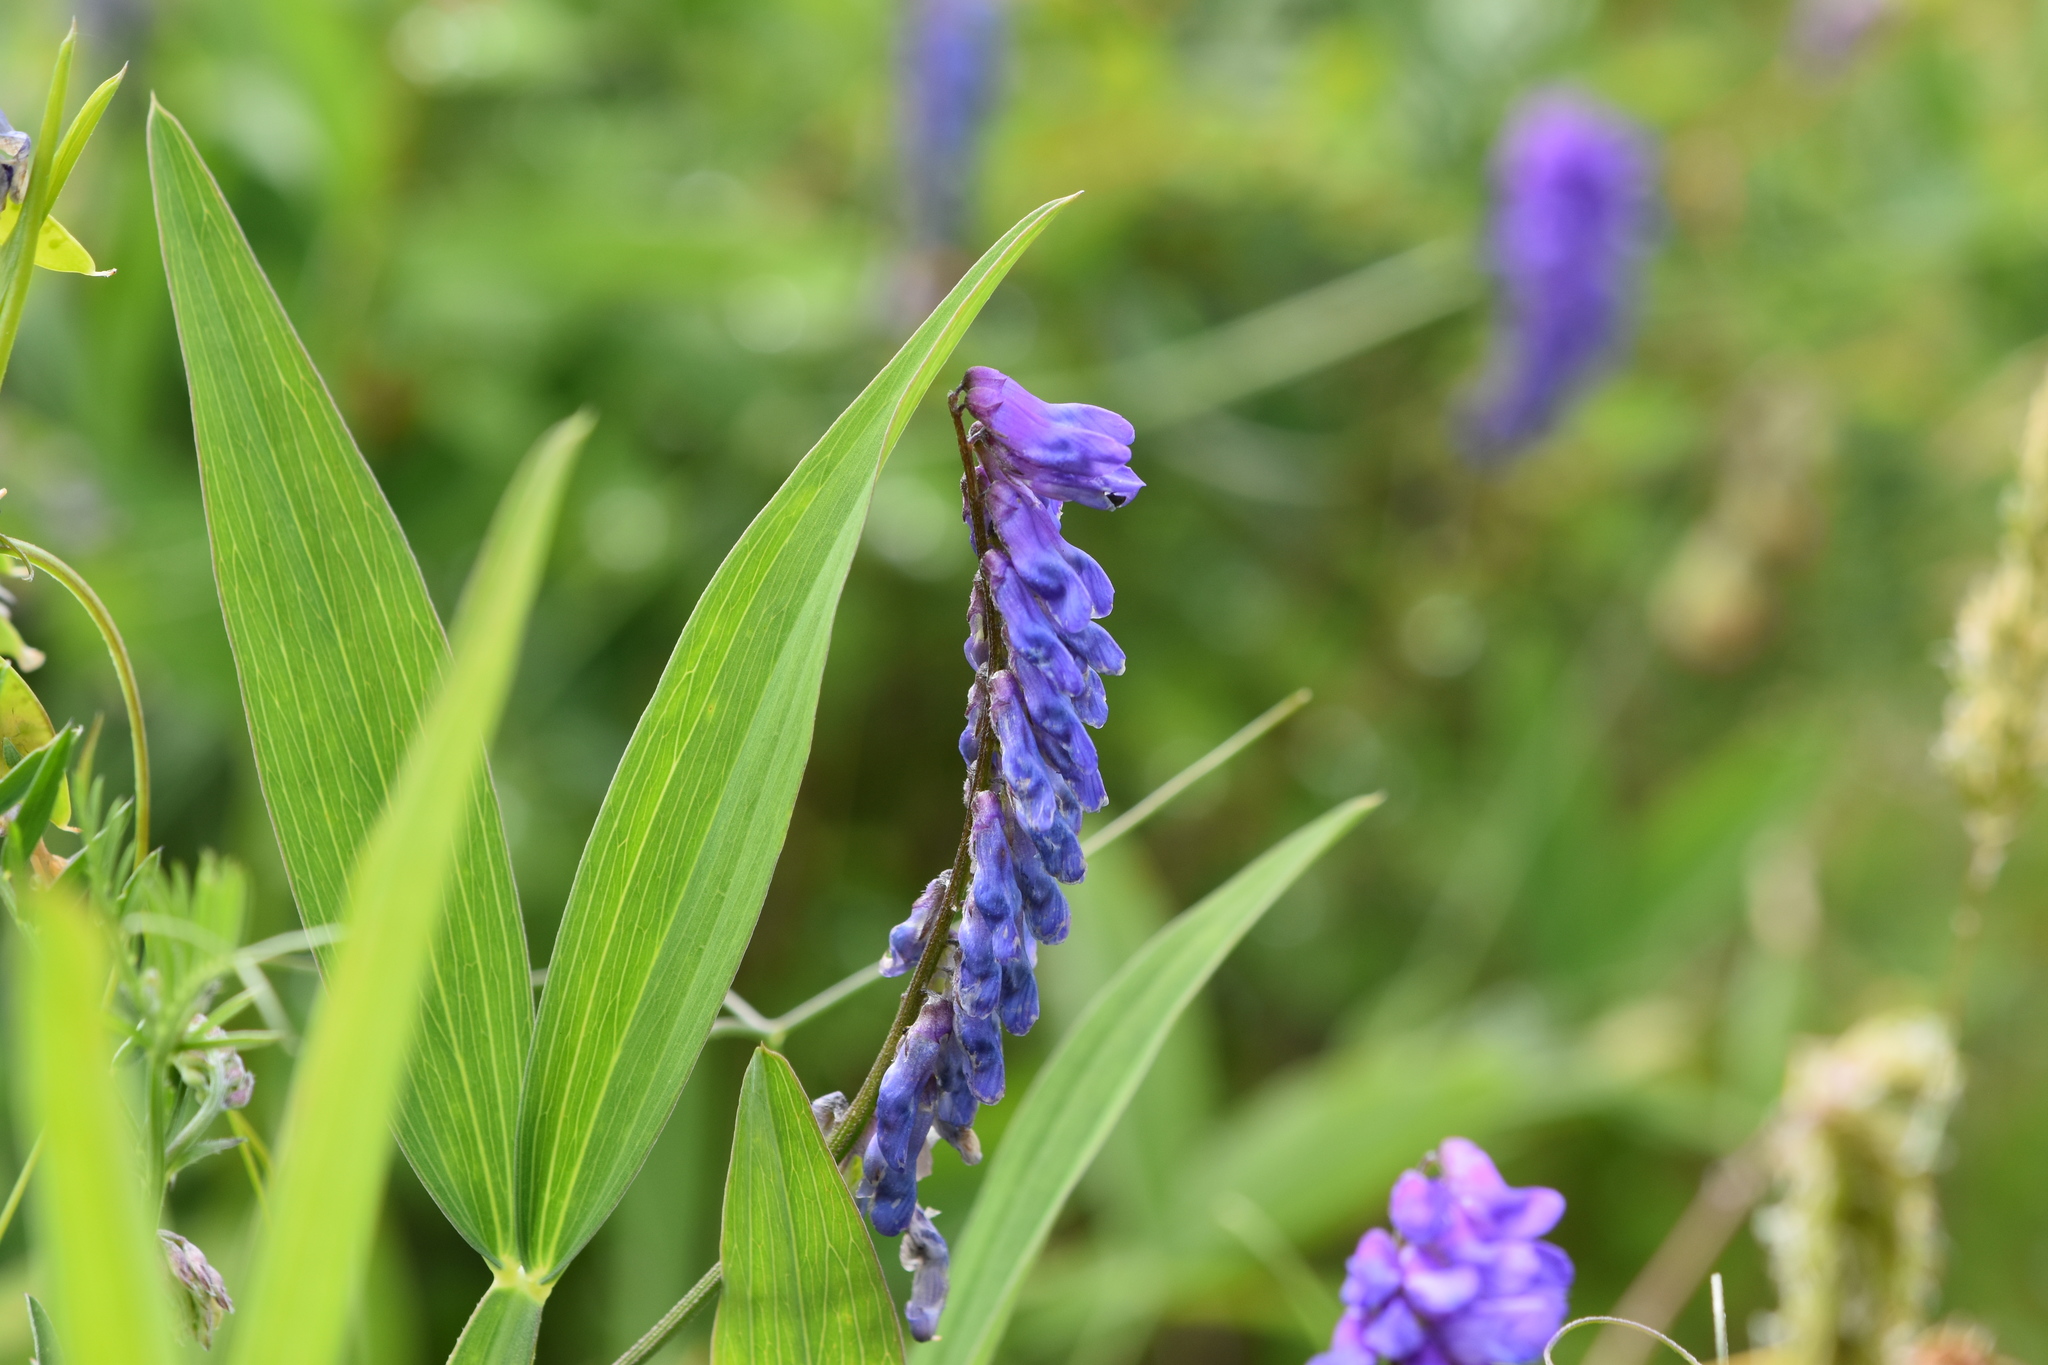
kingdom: Plantae
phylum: Tracheophyta
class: Magnoliopsida
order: Fabales
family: Fabaceae
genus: Vicia
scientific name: Vicia cracca
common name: Bird vetch
